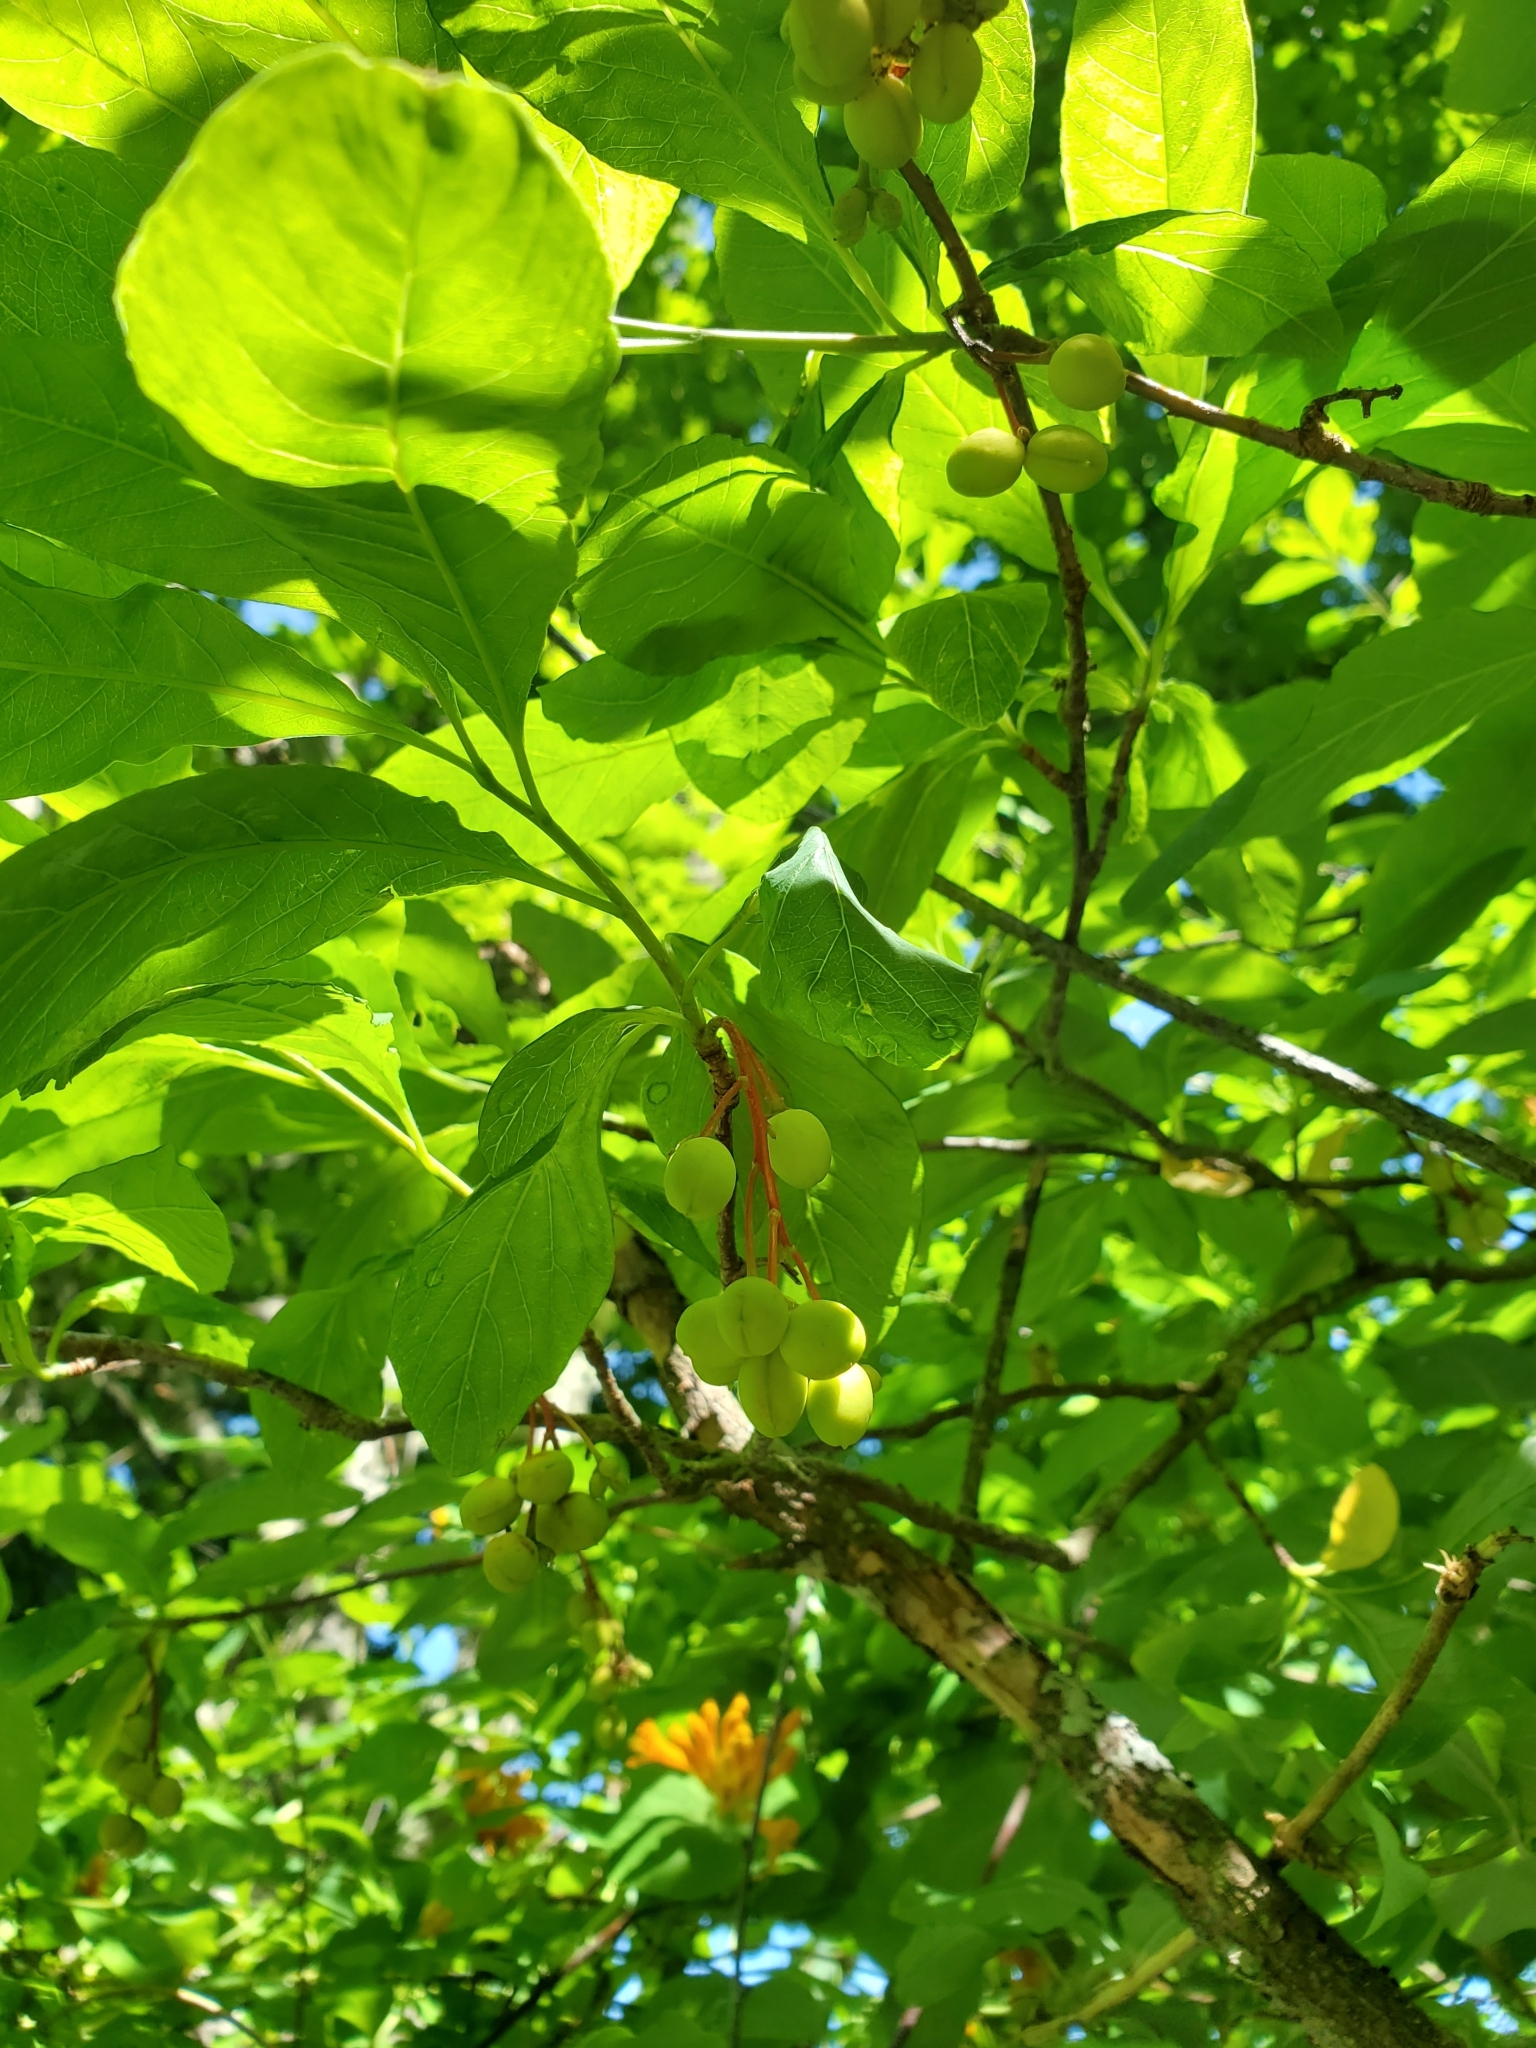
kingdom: Plantae
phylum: Tracheophyta
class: Magnoliopsida
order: Dipsacales
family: Caprifoliaceae
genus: Lonicera
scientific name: Lonicera ciliosa
